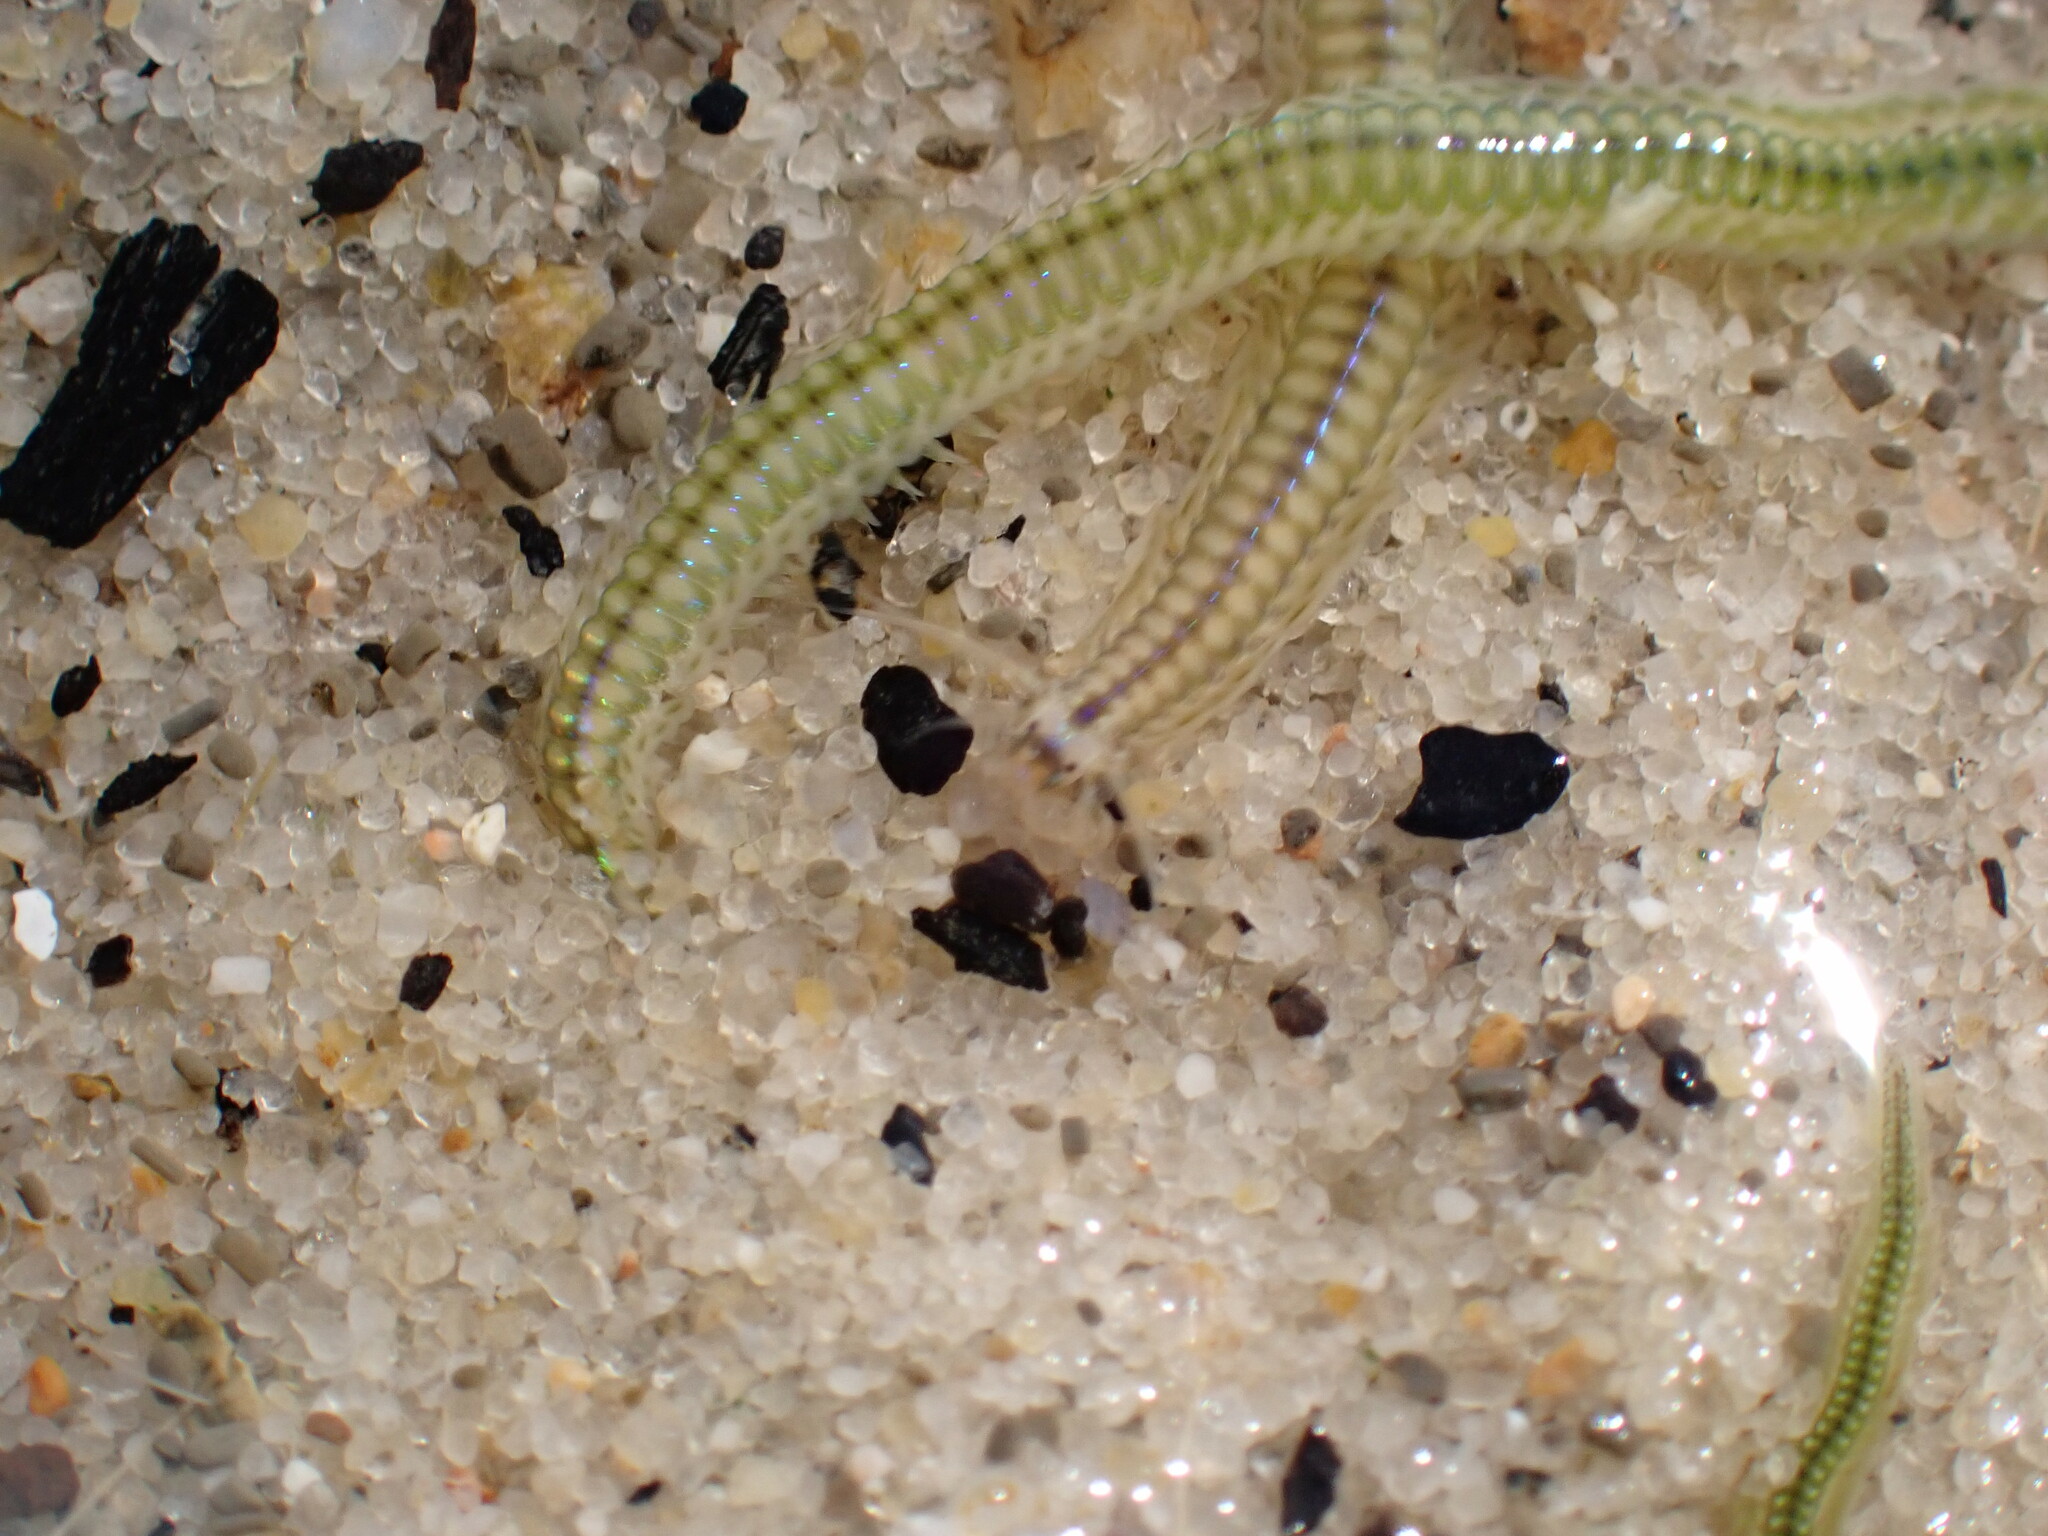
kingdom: Animalia
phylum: Annelida
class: Polychaeta
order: Phyllodocida
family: Phyllodocidae
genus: Phyllodoce
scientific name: Phyllodoce novaehollandiae
